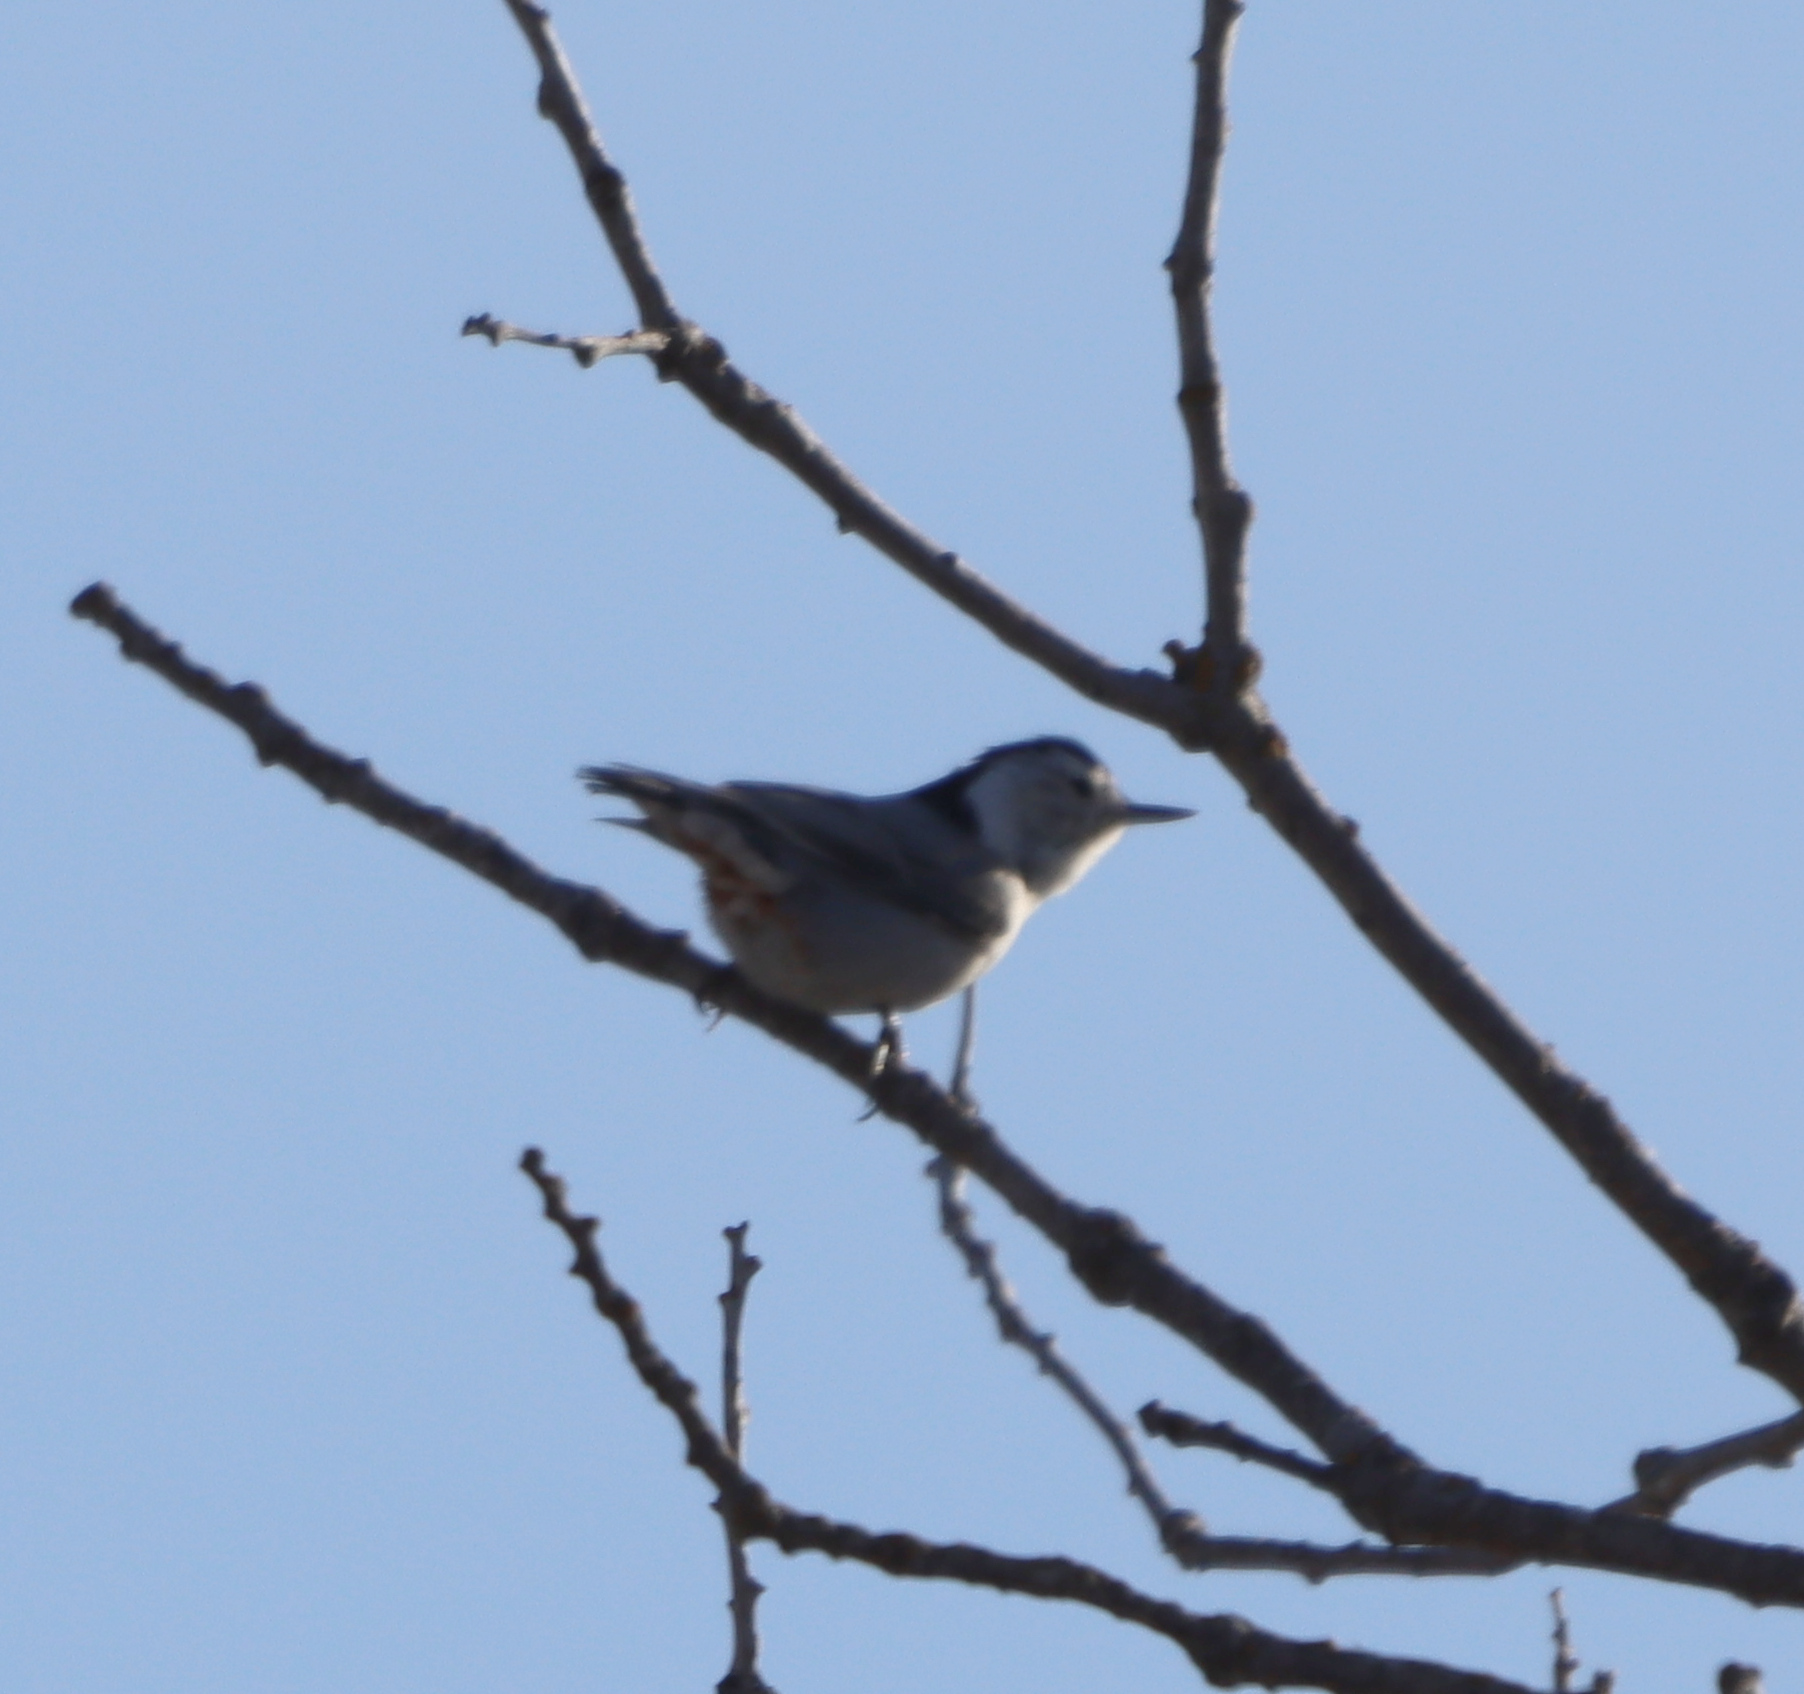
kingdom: Animalia
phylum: Chordata
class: Aves
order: Passeriformes
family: Sittidae
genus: Sitta
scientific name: Sitta carolinensis
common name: White-breasted nuthatch
